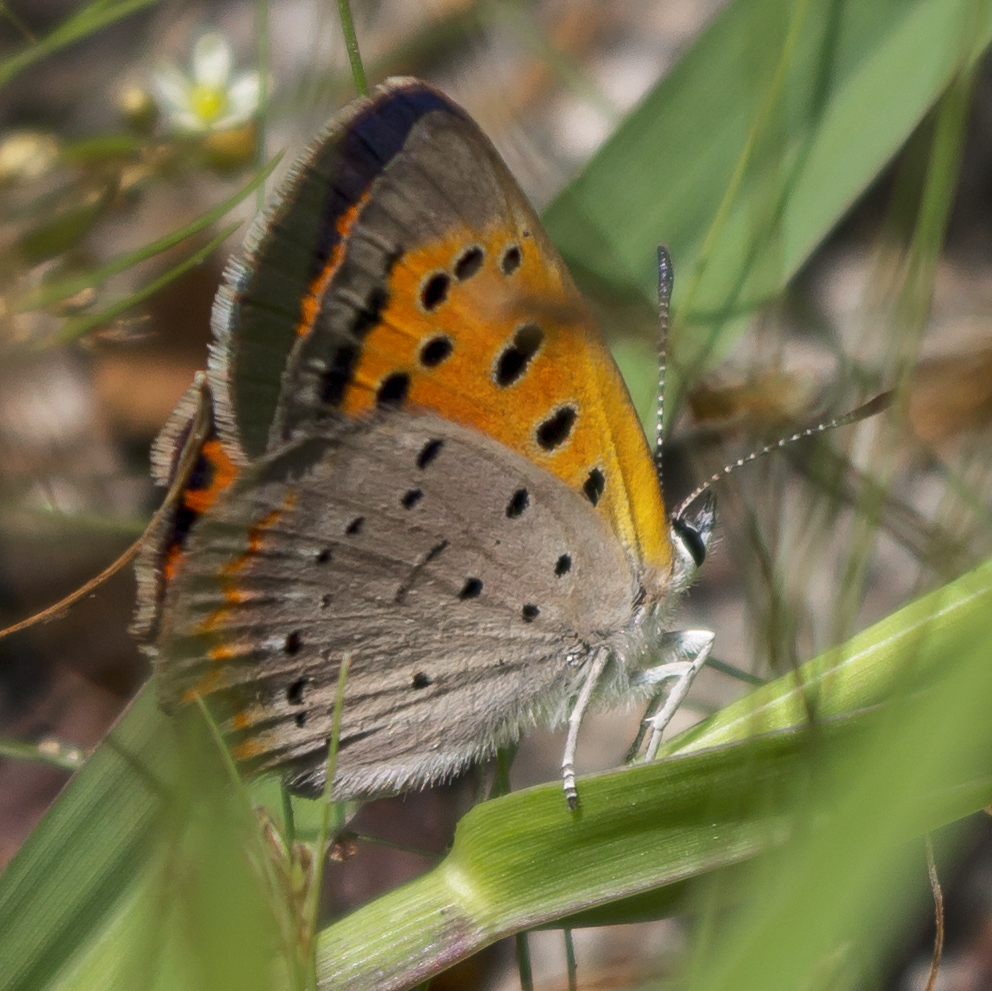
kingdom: Animalia
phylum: Arthropoda
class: Insecta
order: Lepidoptera
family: Lycaenidae
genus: Lycaena
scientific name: Lycaena hypophlaeas
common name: American copper
